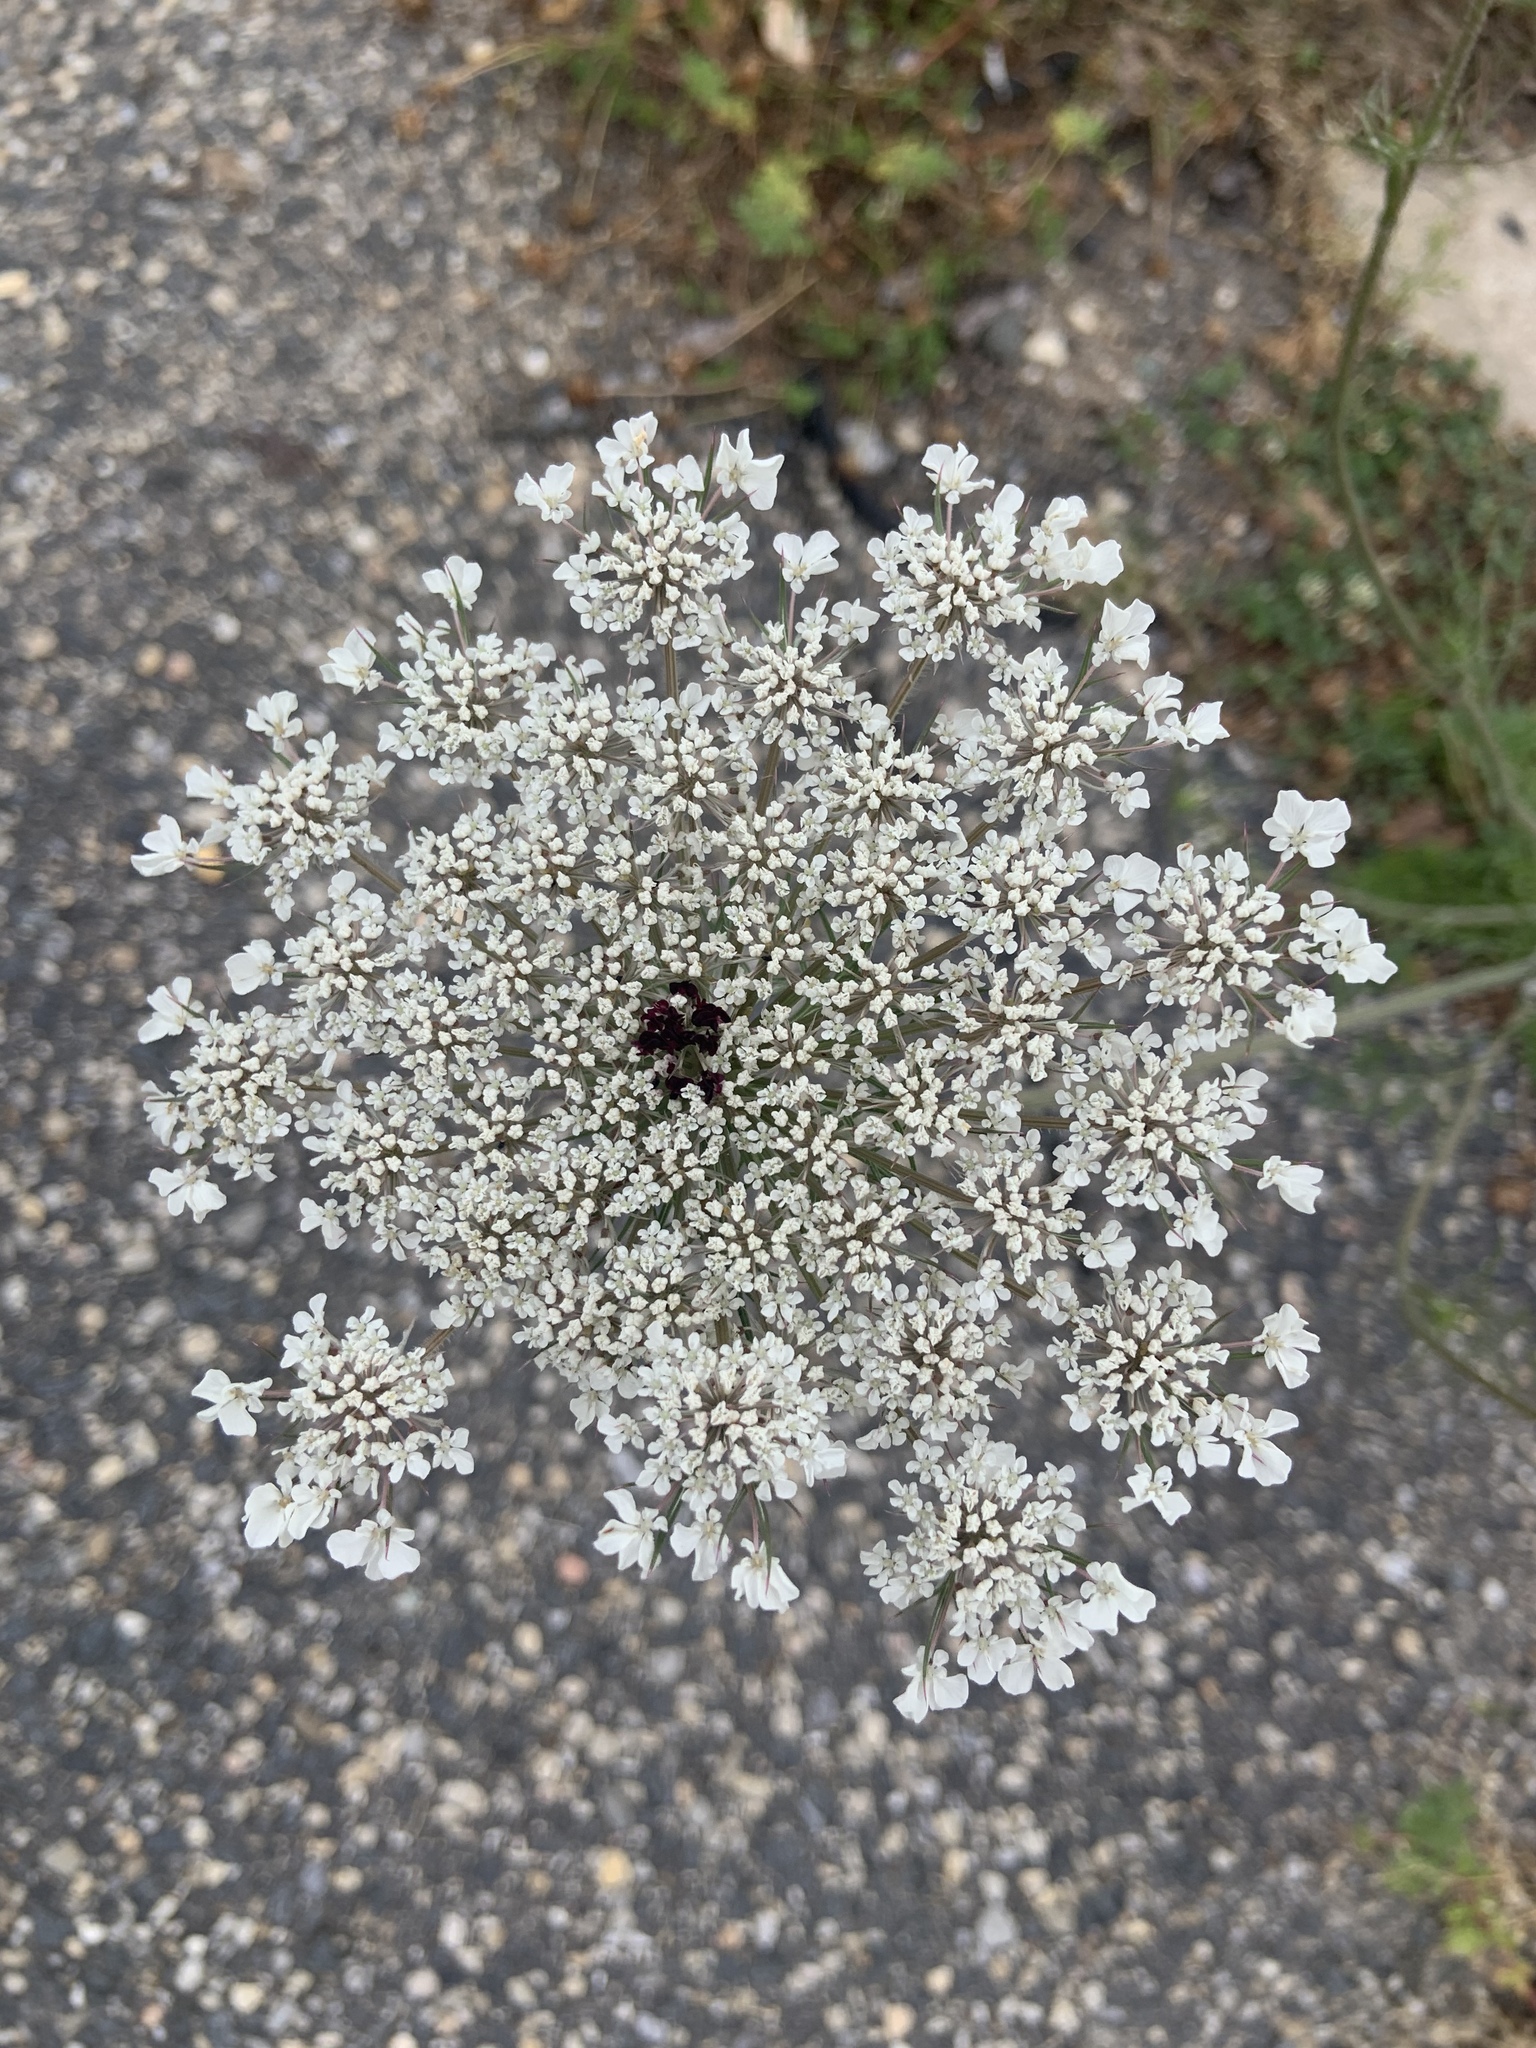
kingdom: Plantae
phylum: Tracheophyta
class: Magnoliopsida
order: Apiales
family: Apiaceae
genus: Daucus
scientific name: Daucus carota
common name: Wild carrot
